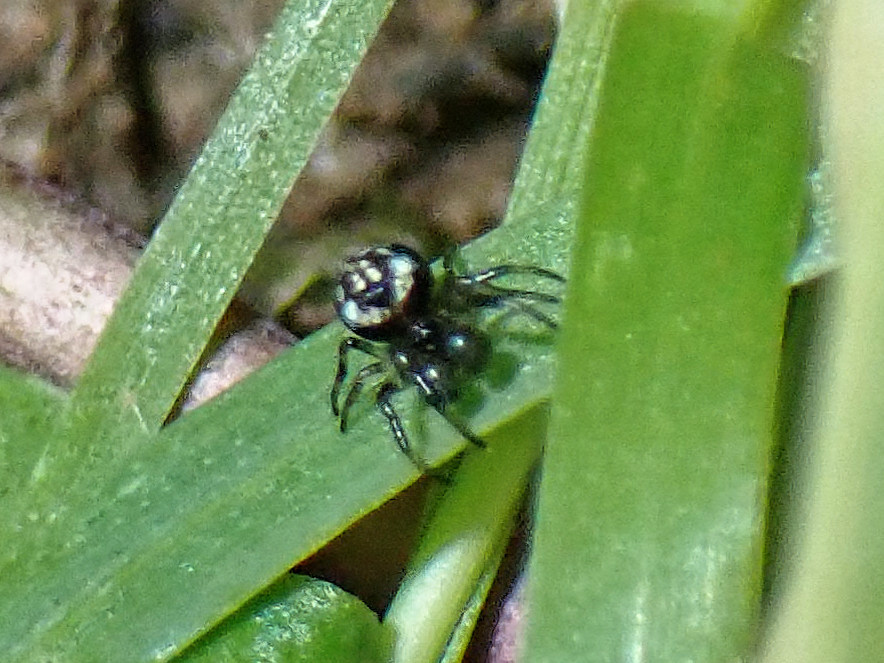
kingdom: Animalia
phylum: Arthropoda
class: Arachnida
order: Araneae
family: Theridiosomatidae
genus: Theridiosoma
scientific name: Theridiosoma gemmosum
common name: Ray spider
